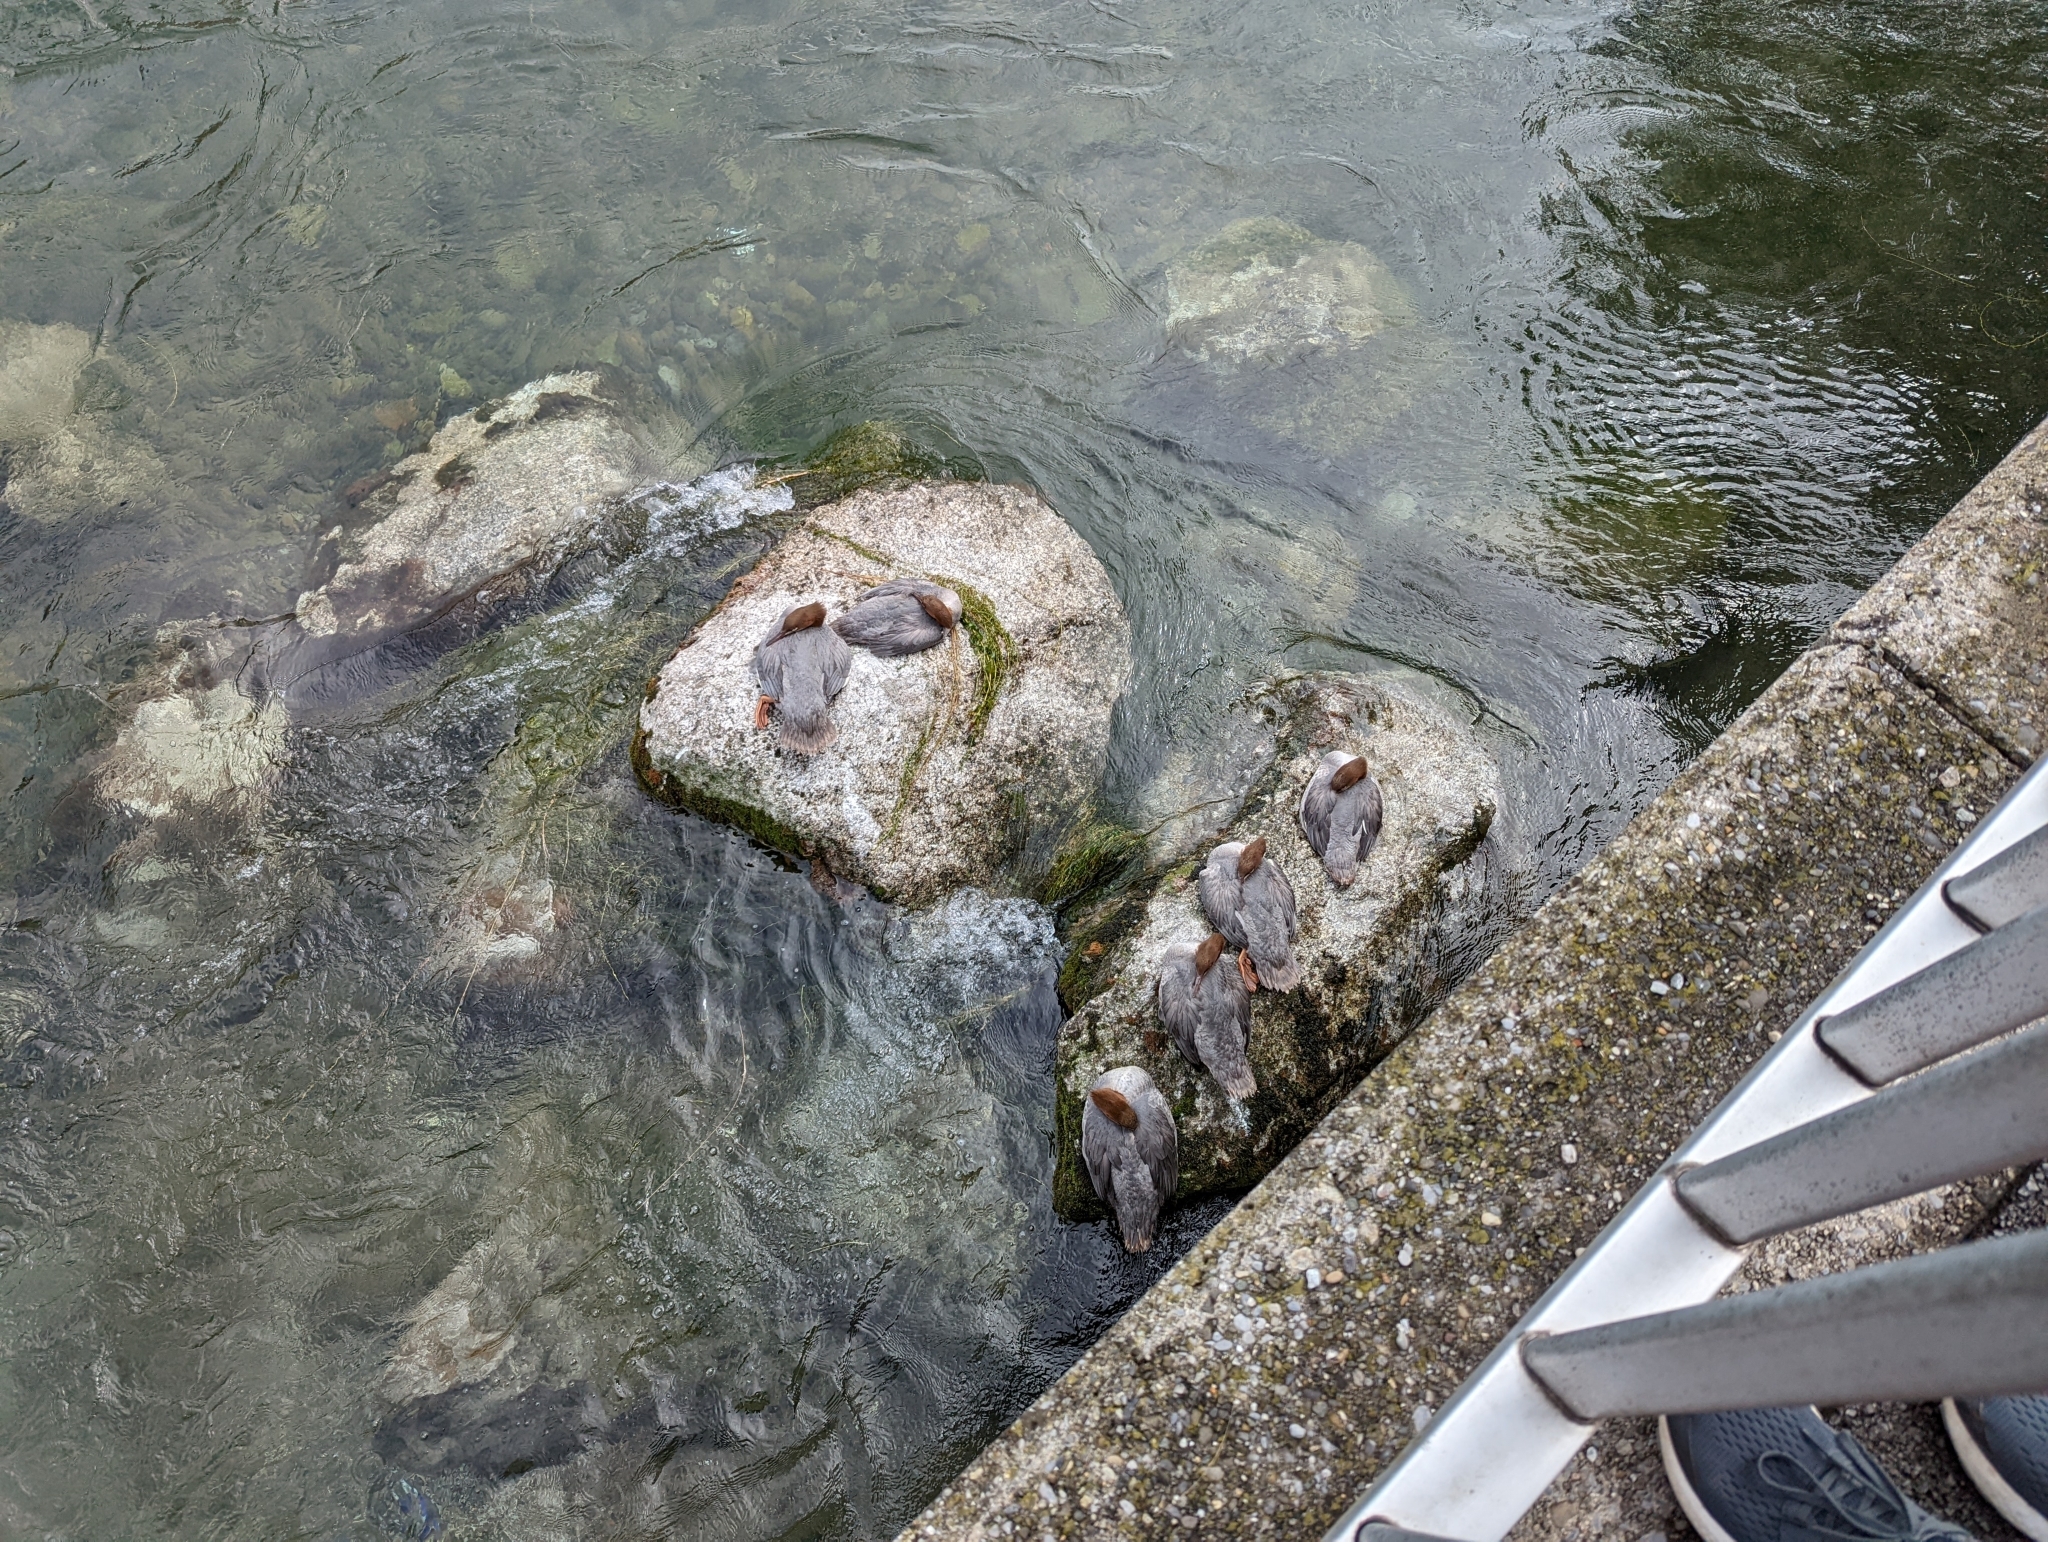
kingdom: Animalia
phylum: Chordata
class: Aves
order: Anseriformes
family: Anatidae
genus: Mergus
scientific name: Mergus merganser
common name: Common merganser
